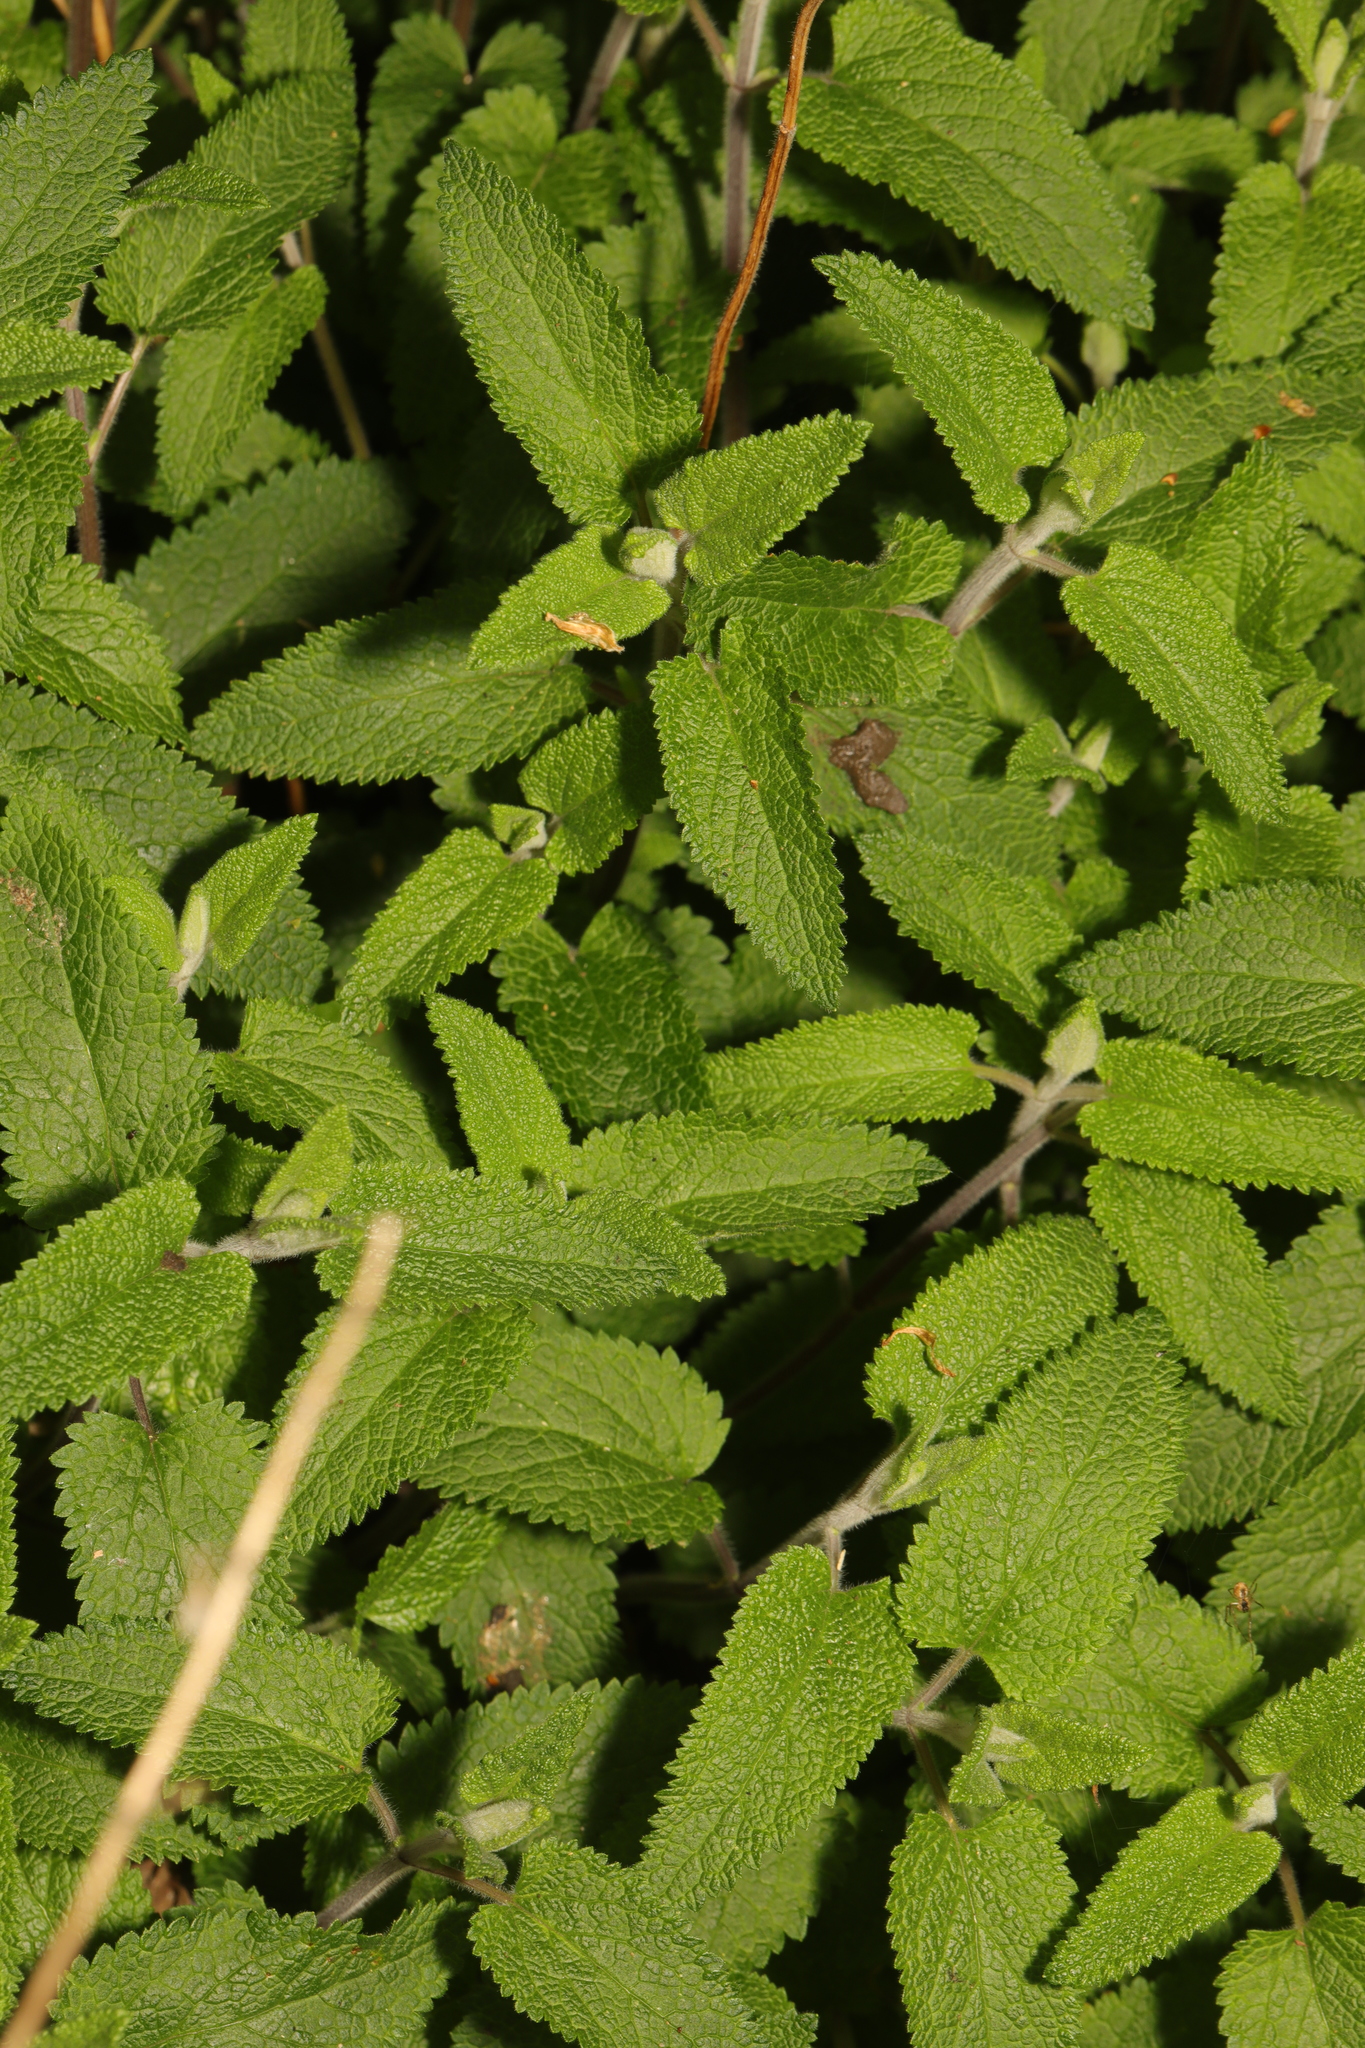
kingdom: Plantae
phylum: Tracheophyta
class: Magnoliopsida
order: Lamiales
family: Lamiaceae
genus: Teucrium
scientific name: Teucrium scorodonia
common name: Woodland germander
